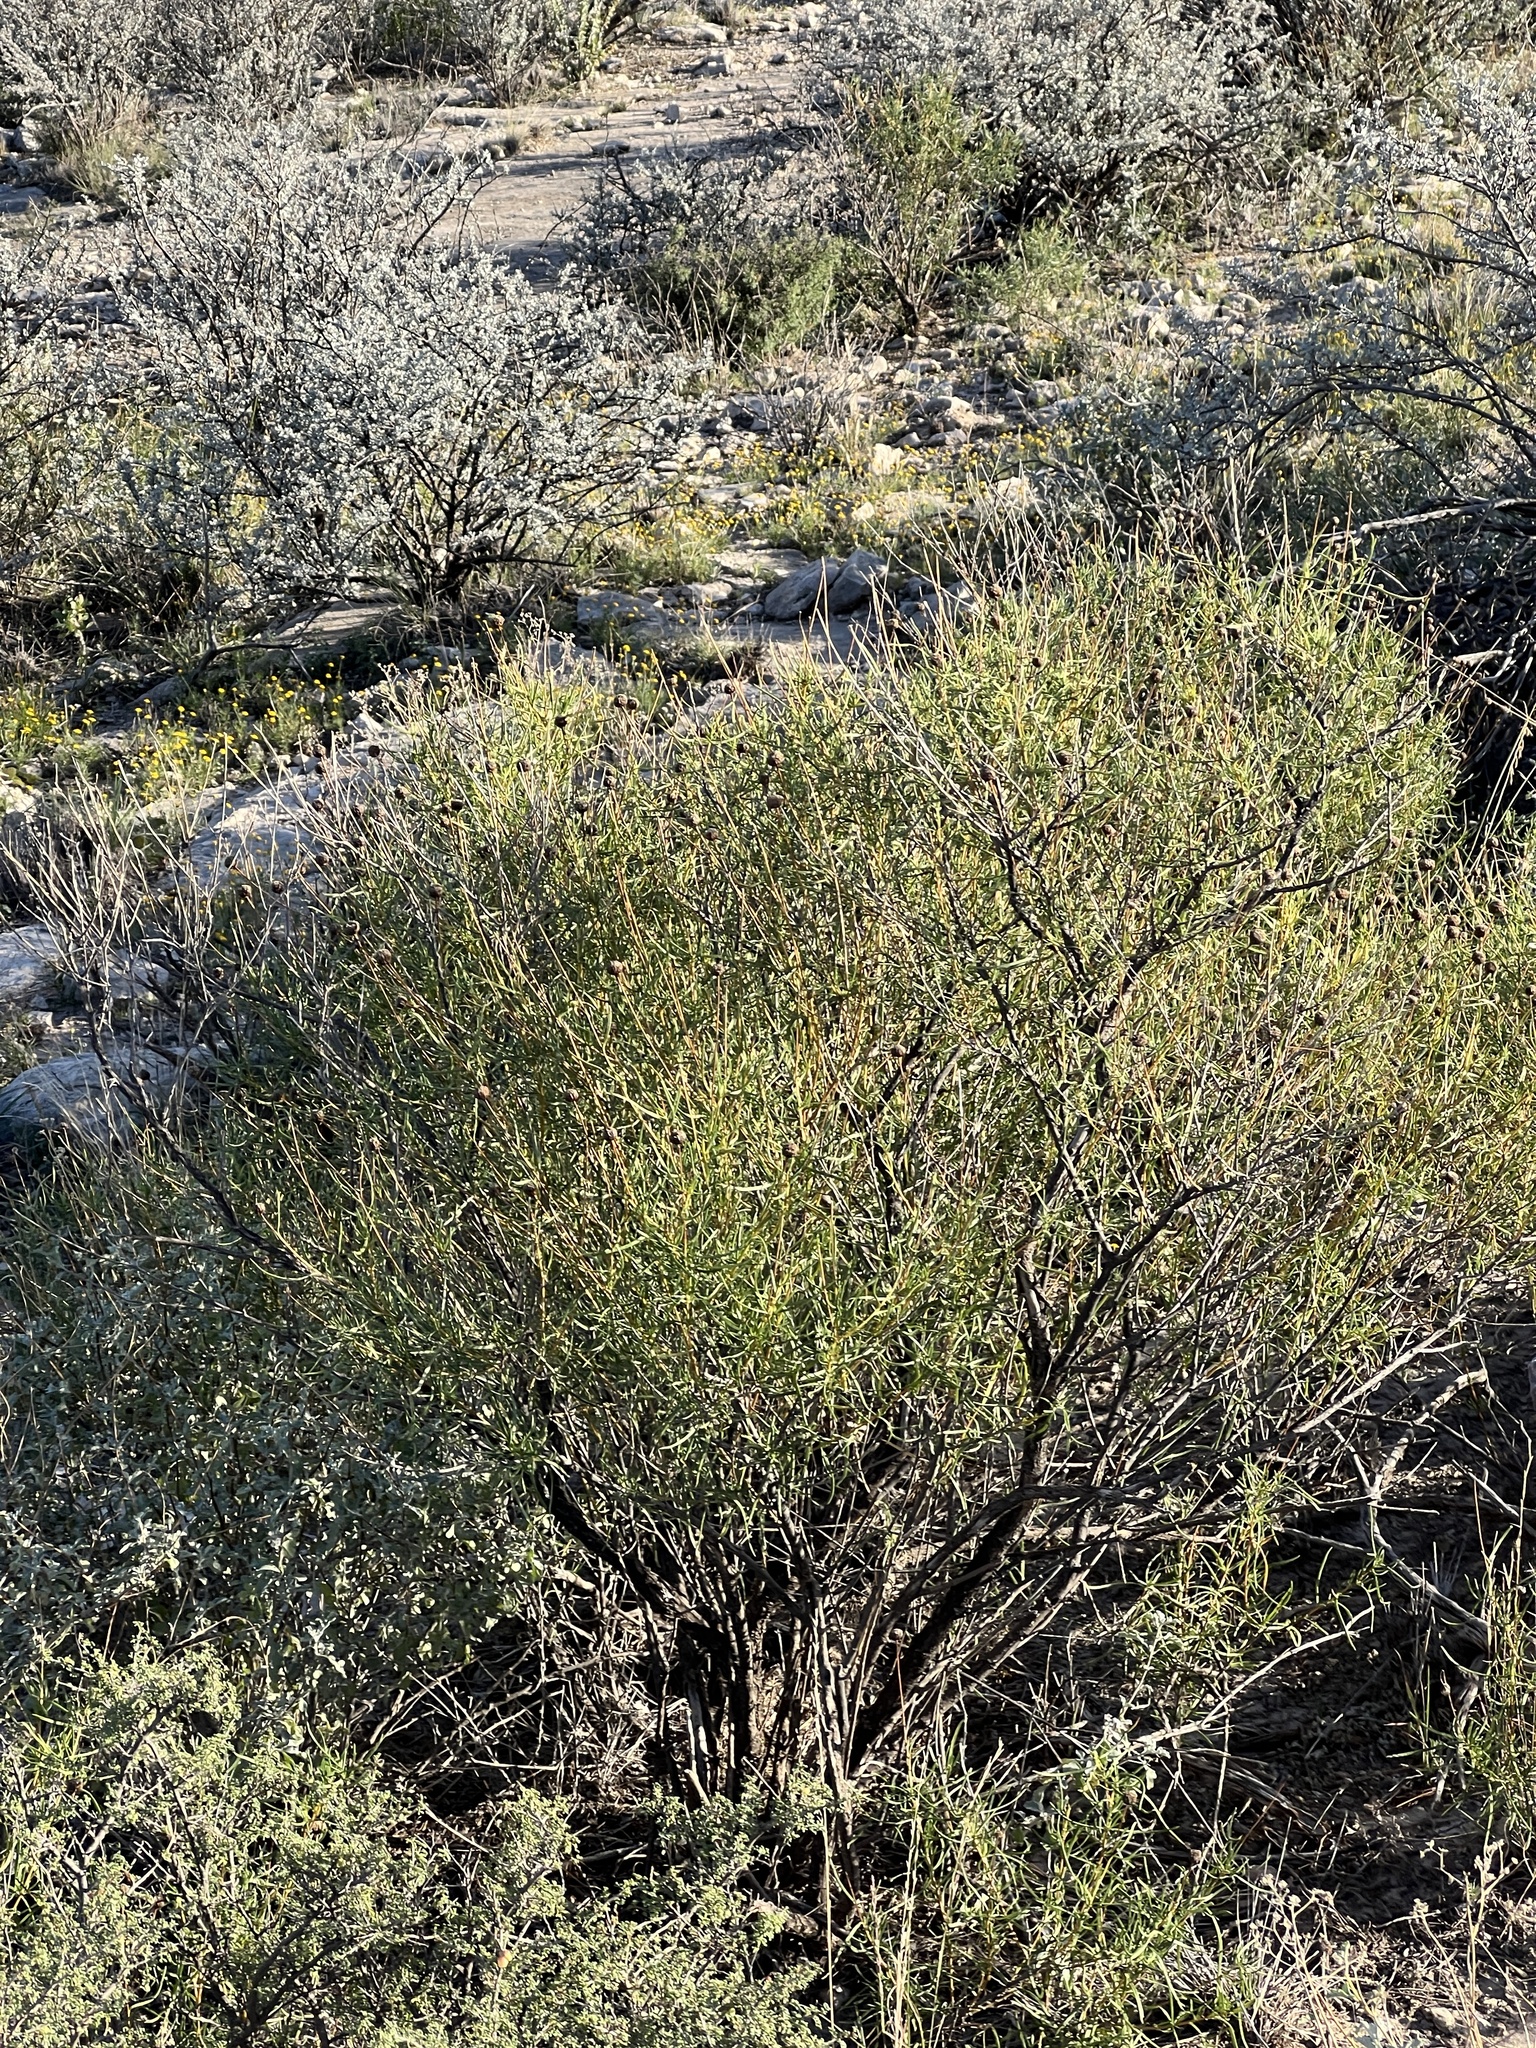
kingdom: Plantae
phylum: Tracheophyta
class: Magnoliopsida
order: Asterales
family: Asteraceae
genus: Sidneya
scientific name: Sidneya tenuifolia
